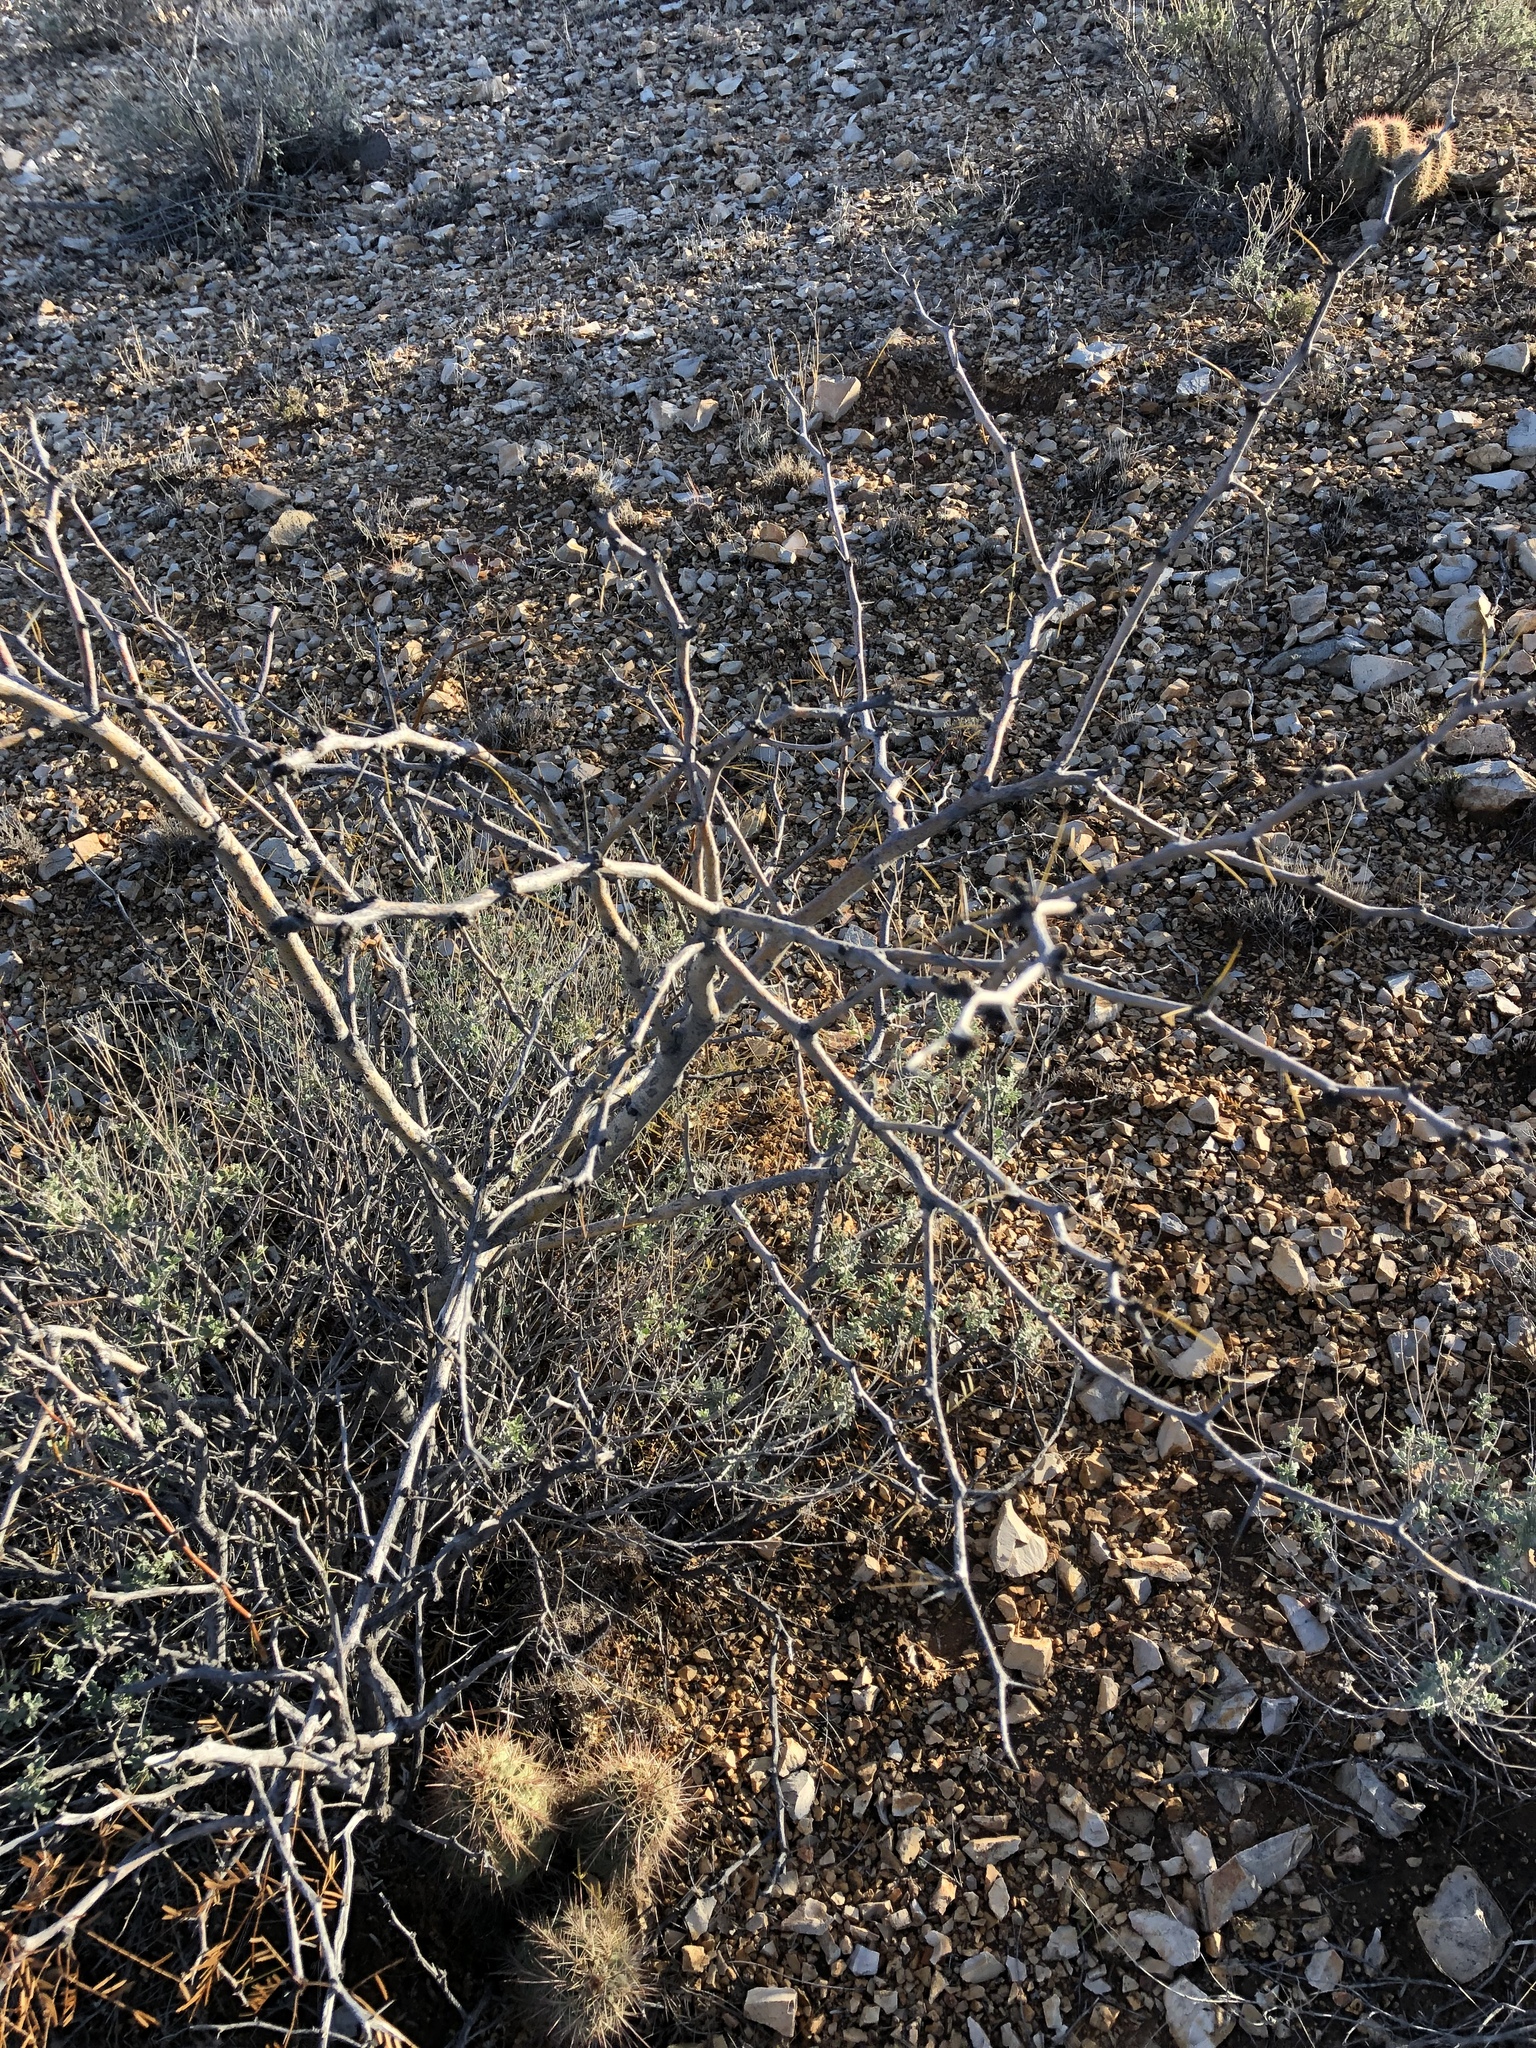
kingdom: Plantae
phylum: Tracheophyta
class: Magnoliopsida
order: Fabales
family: Fabaceae
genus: Prosopis
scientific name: Prosopis glandulosa
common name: Honey mesquite
